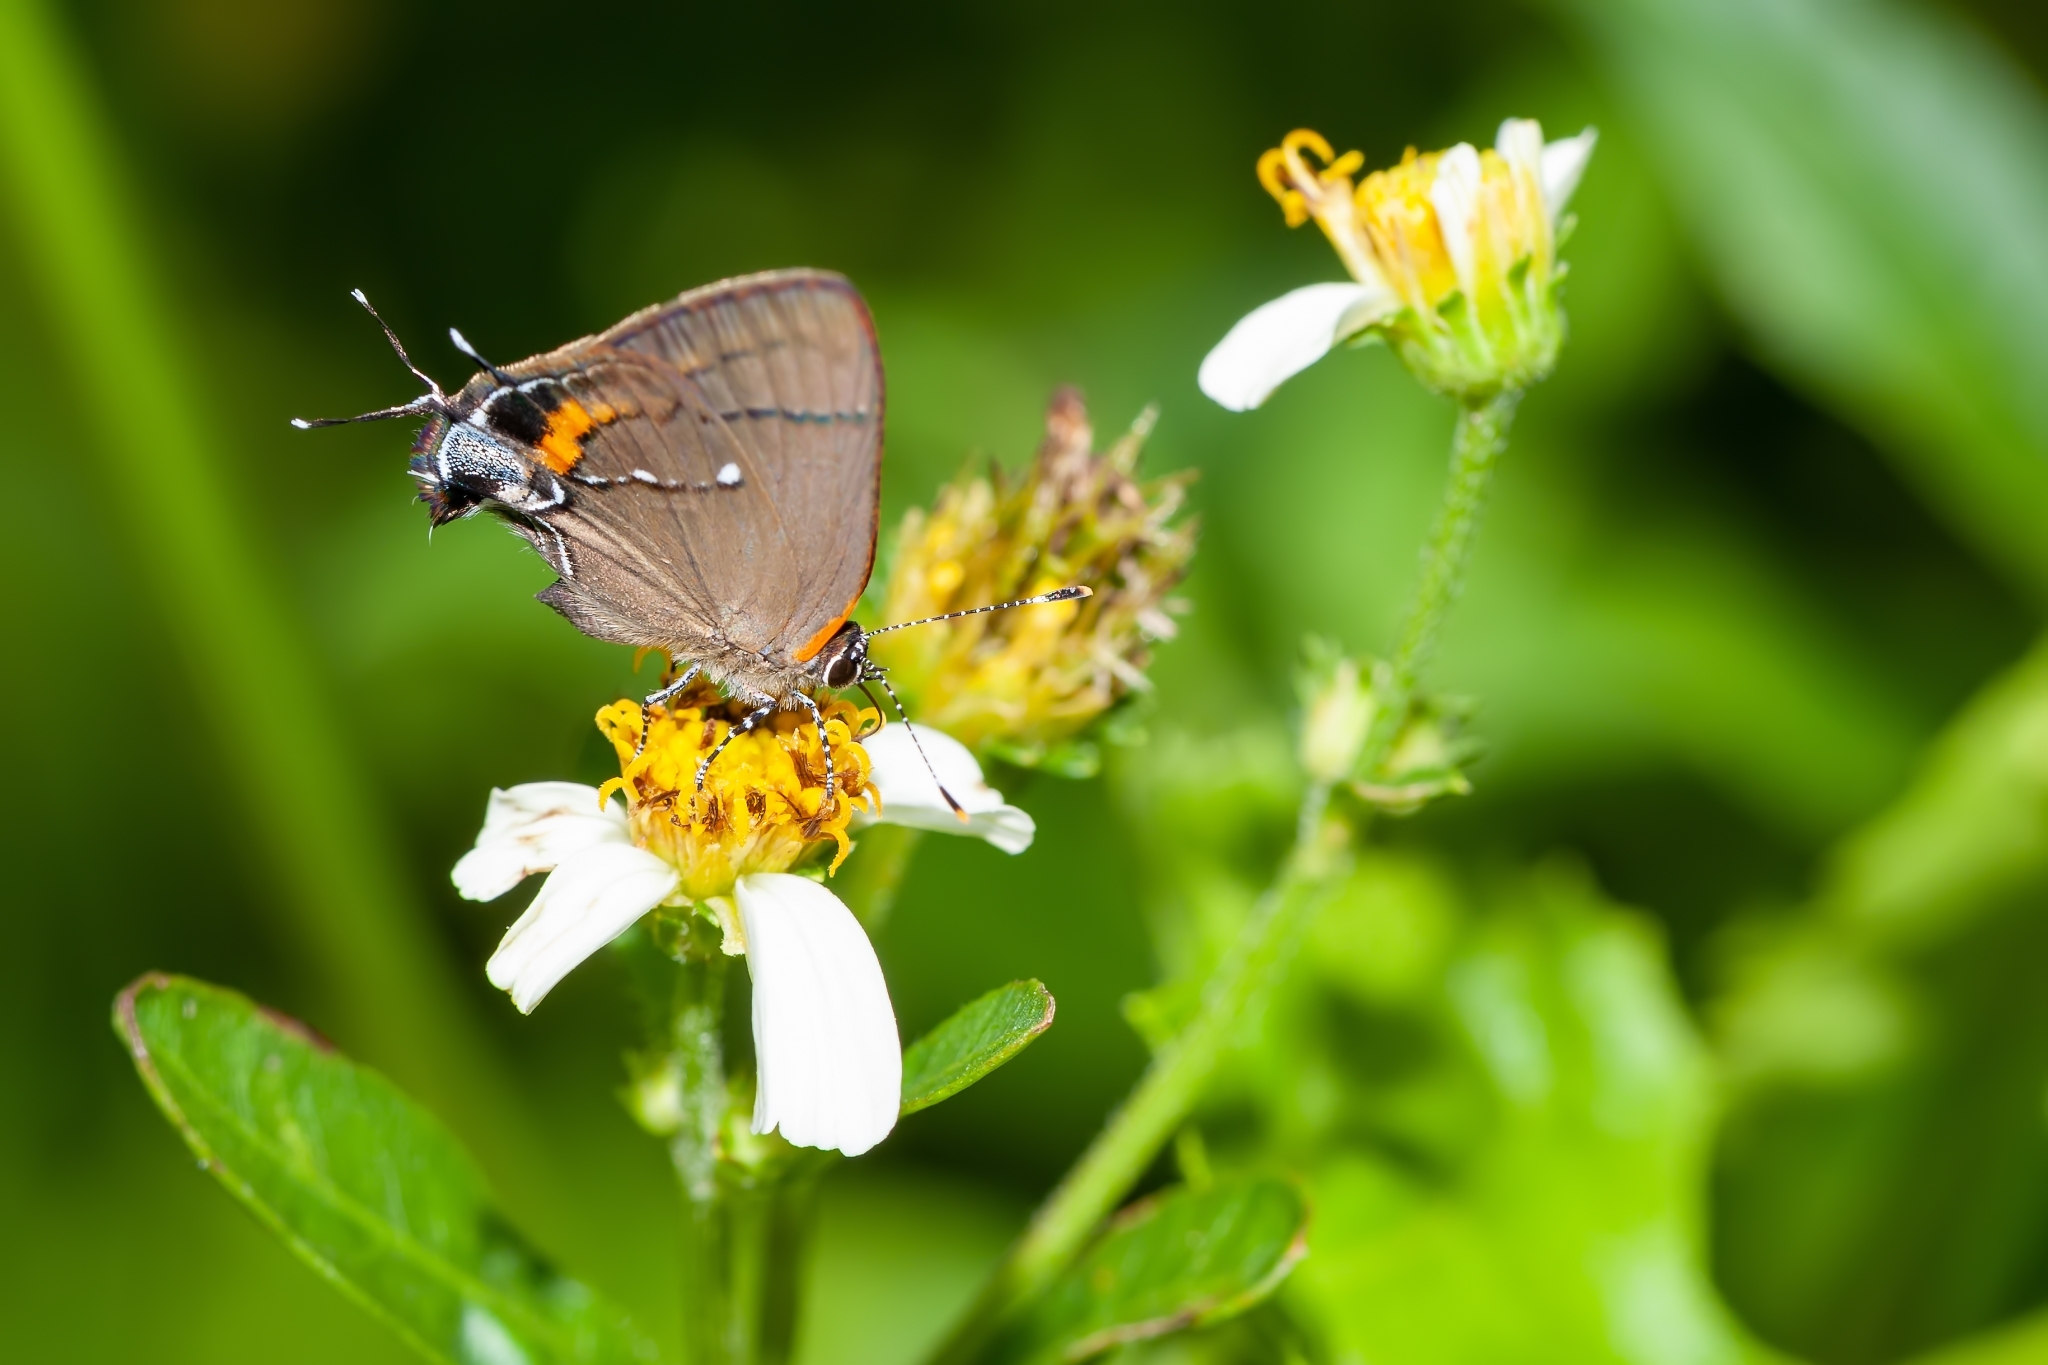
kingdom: Animalia
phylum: Arthropoda
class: Insecta
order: Lepidoptera
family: Lycaenidae
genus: Thecla
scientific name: Thecla angelia
